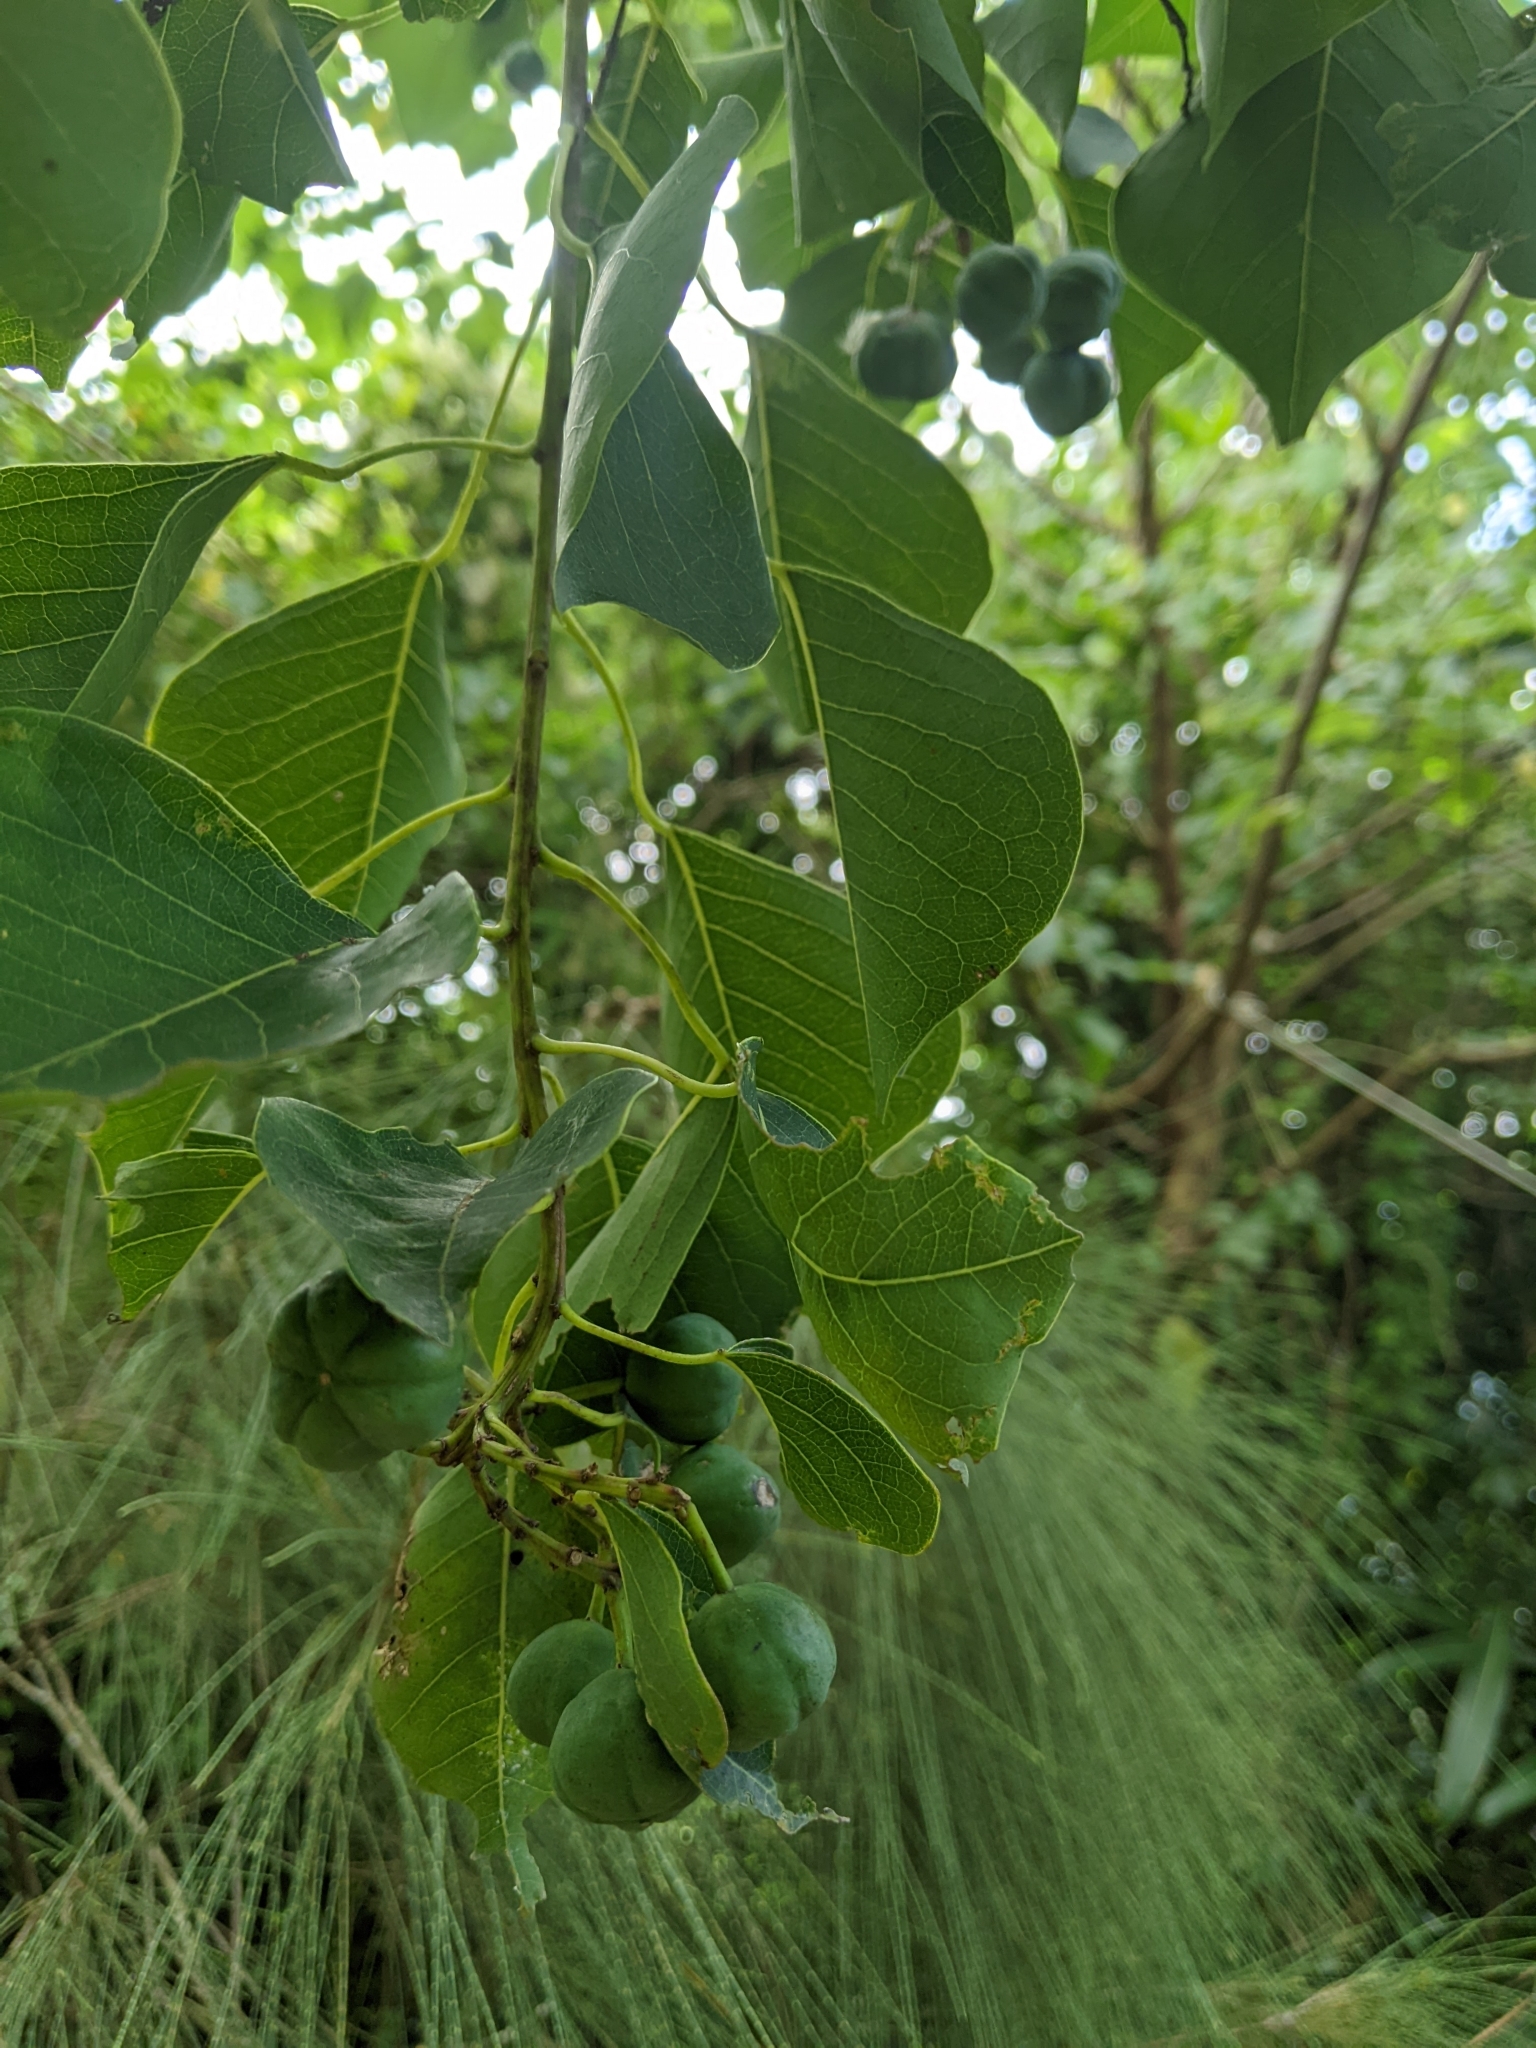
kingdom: Plantae
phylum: Tracheophyta
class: Magnoliopsida
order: Malpighiales
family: Euphorbiaceae
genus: Triadica
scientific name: Triadica sebifera
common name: Chinese tallow
